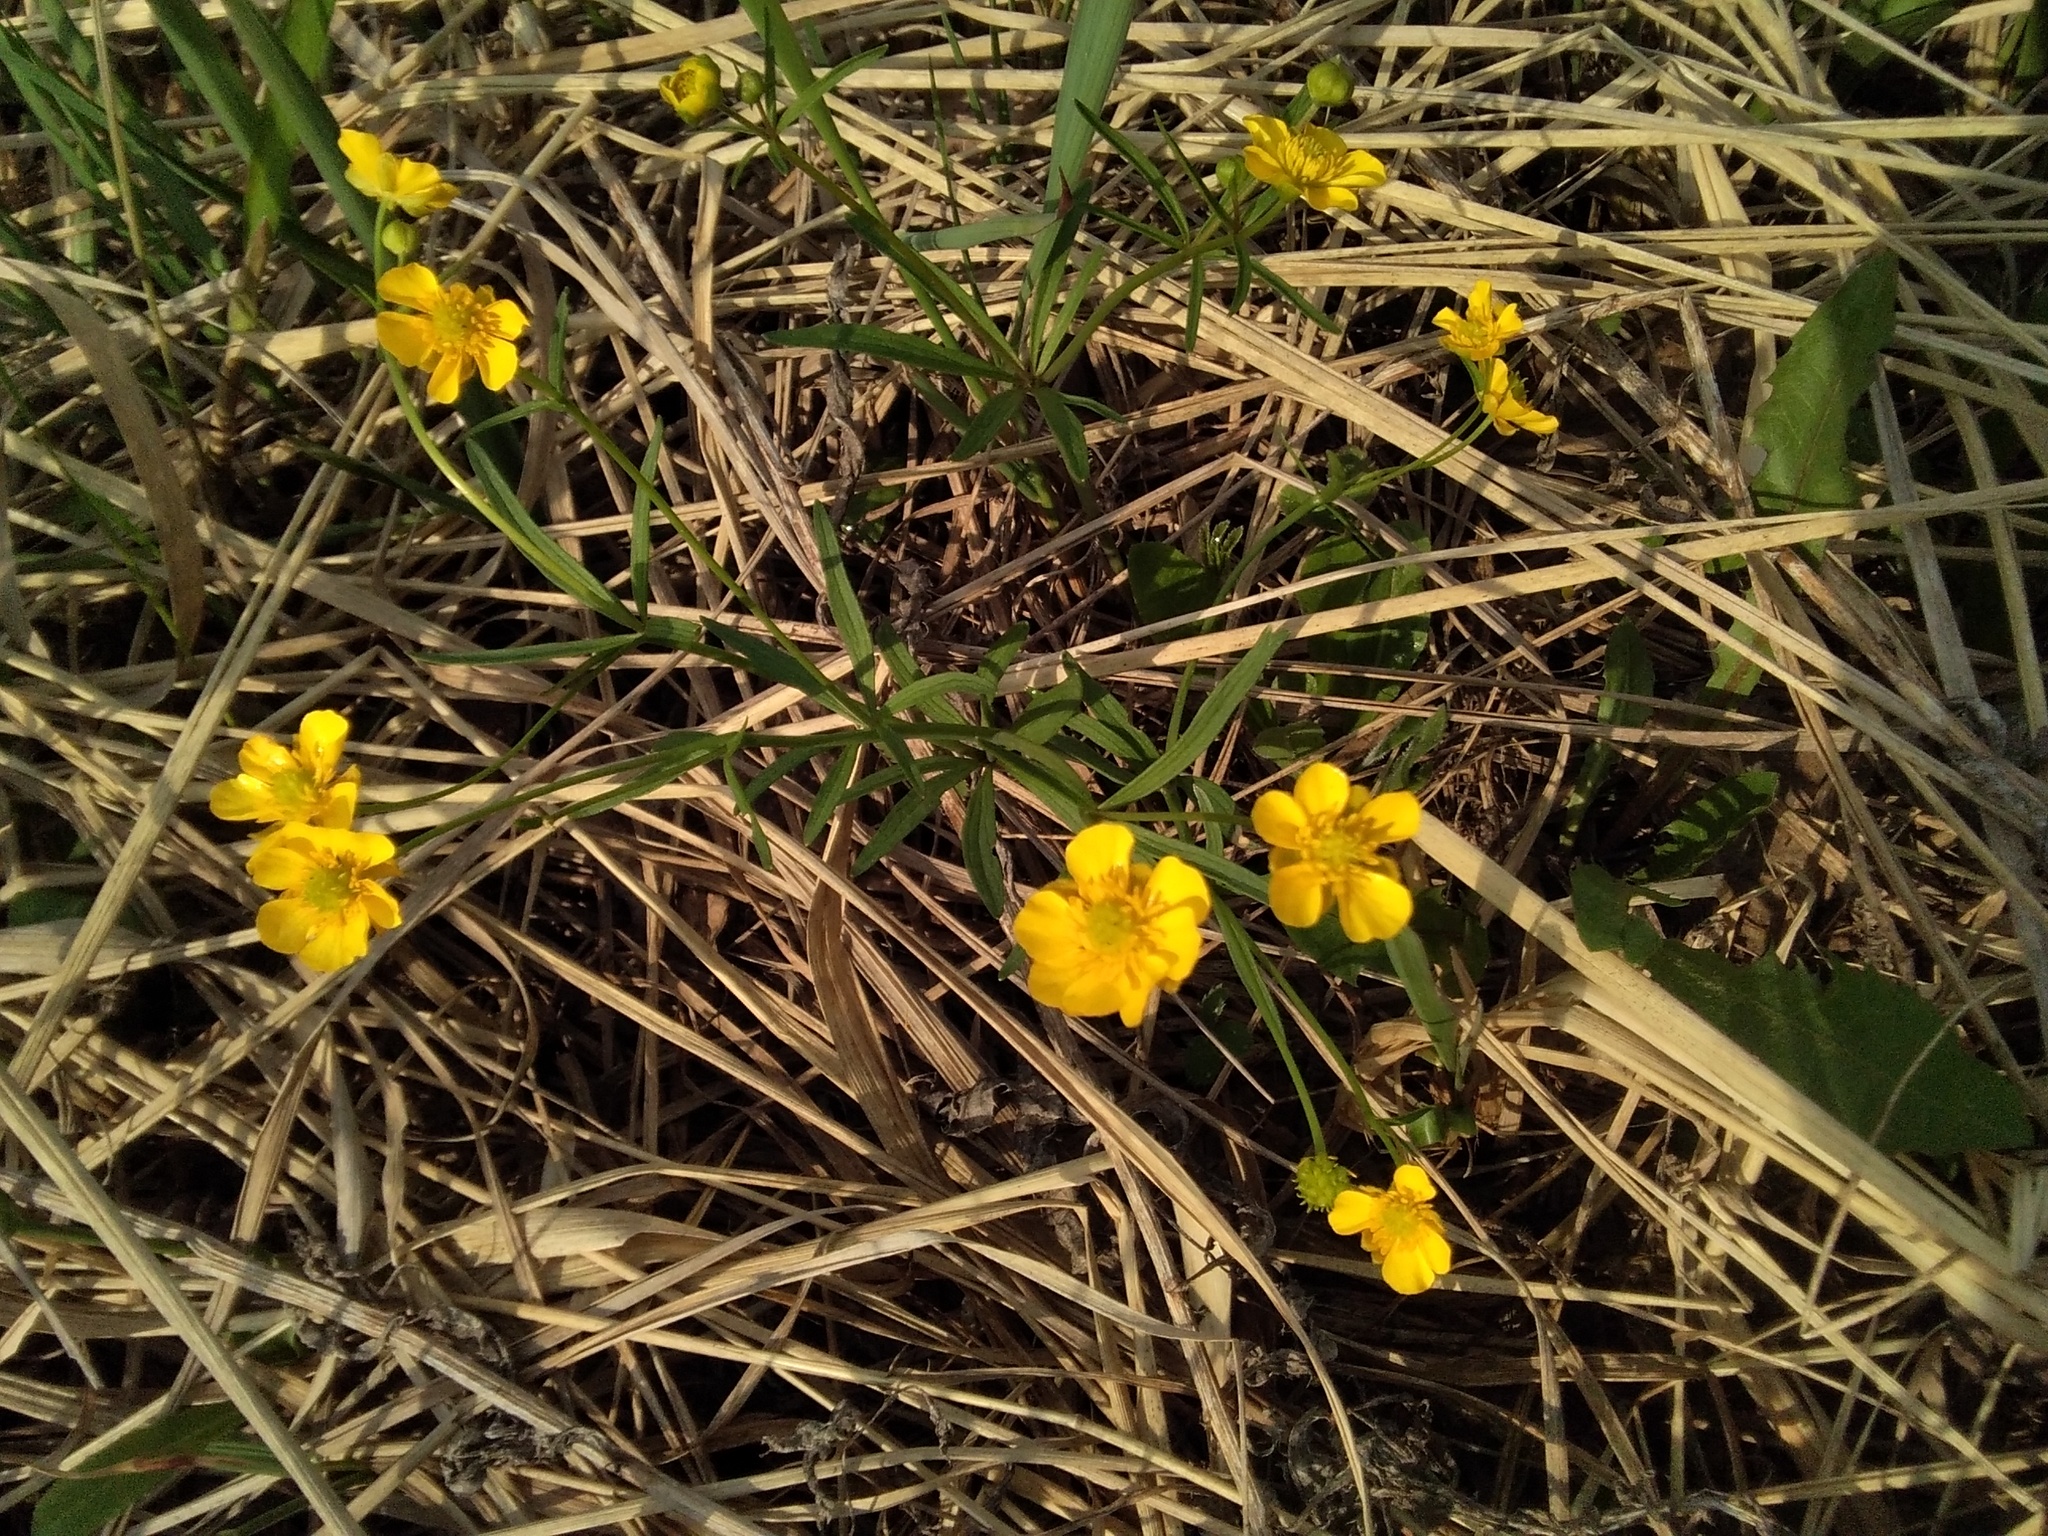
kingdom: Plantae
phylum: Tracheophyta
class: Magnoliopsida
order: Ranunculales
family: Ranunculaceae
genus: Ranunculus
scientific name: Ranunculus monophyllus
